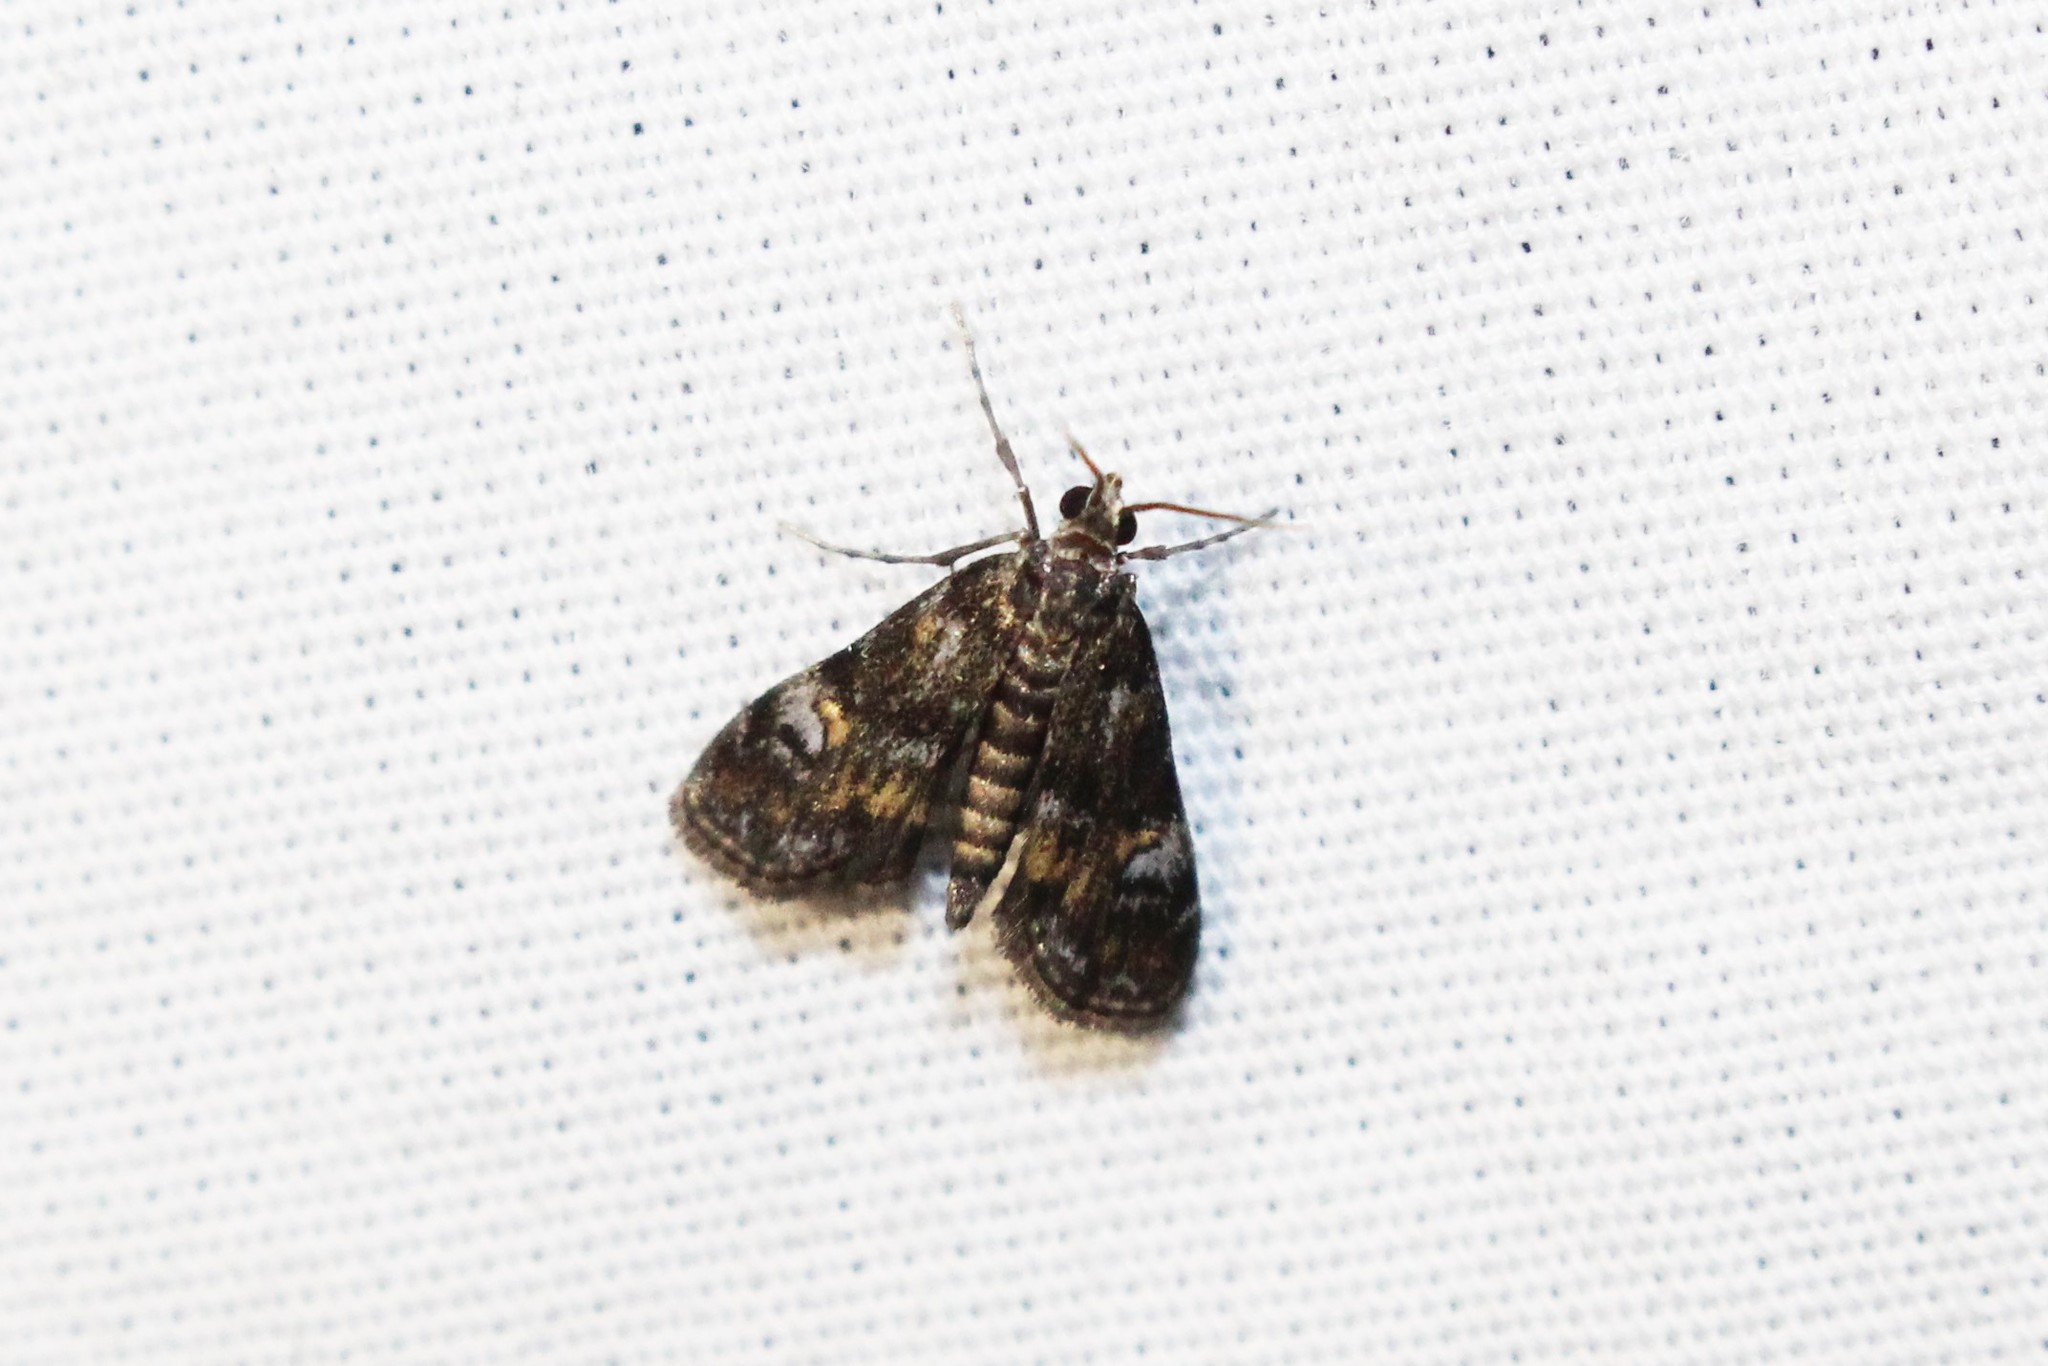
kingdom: Animalia
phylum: Arthropoda
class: Insecta
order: Lepidoptera
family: Crambidae
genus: Elophila
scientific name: Elophila obliteralis
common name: Waterlily leafcutter moth
